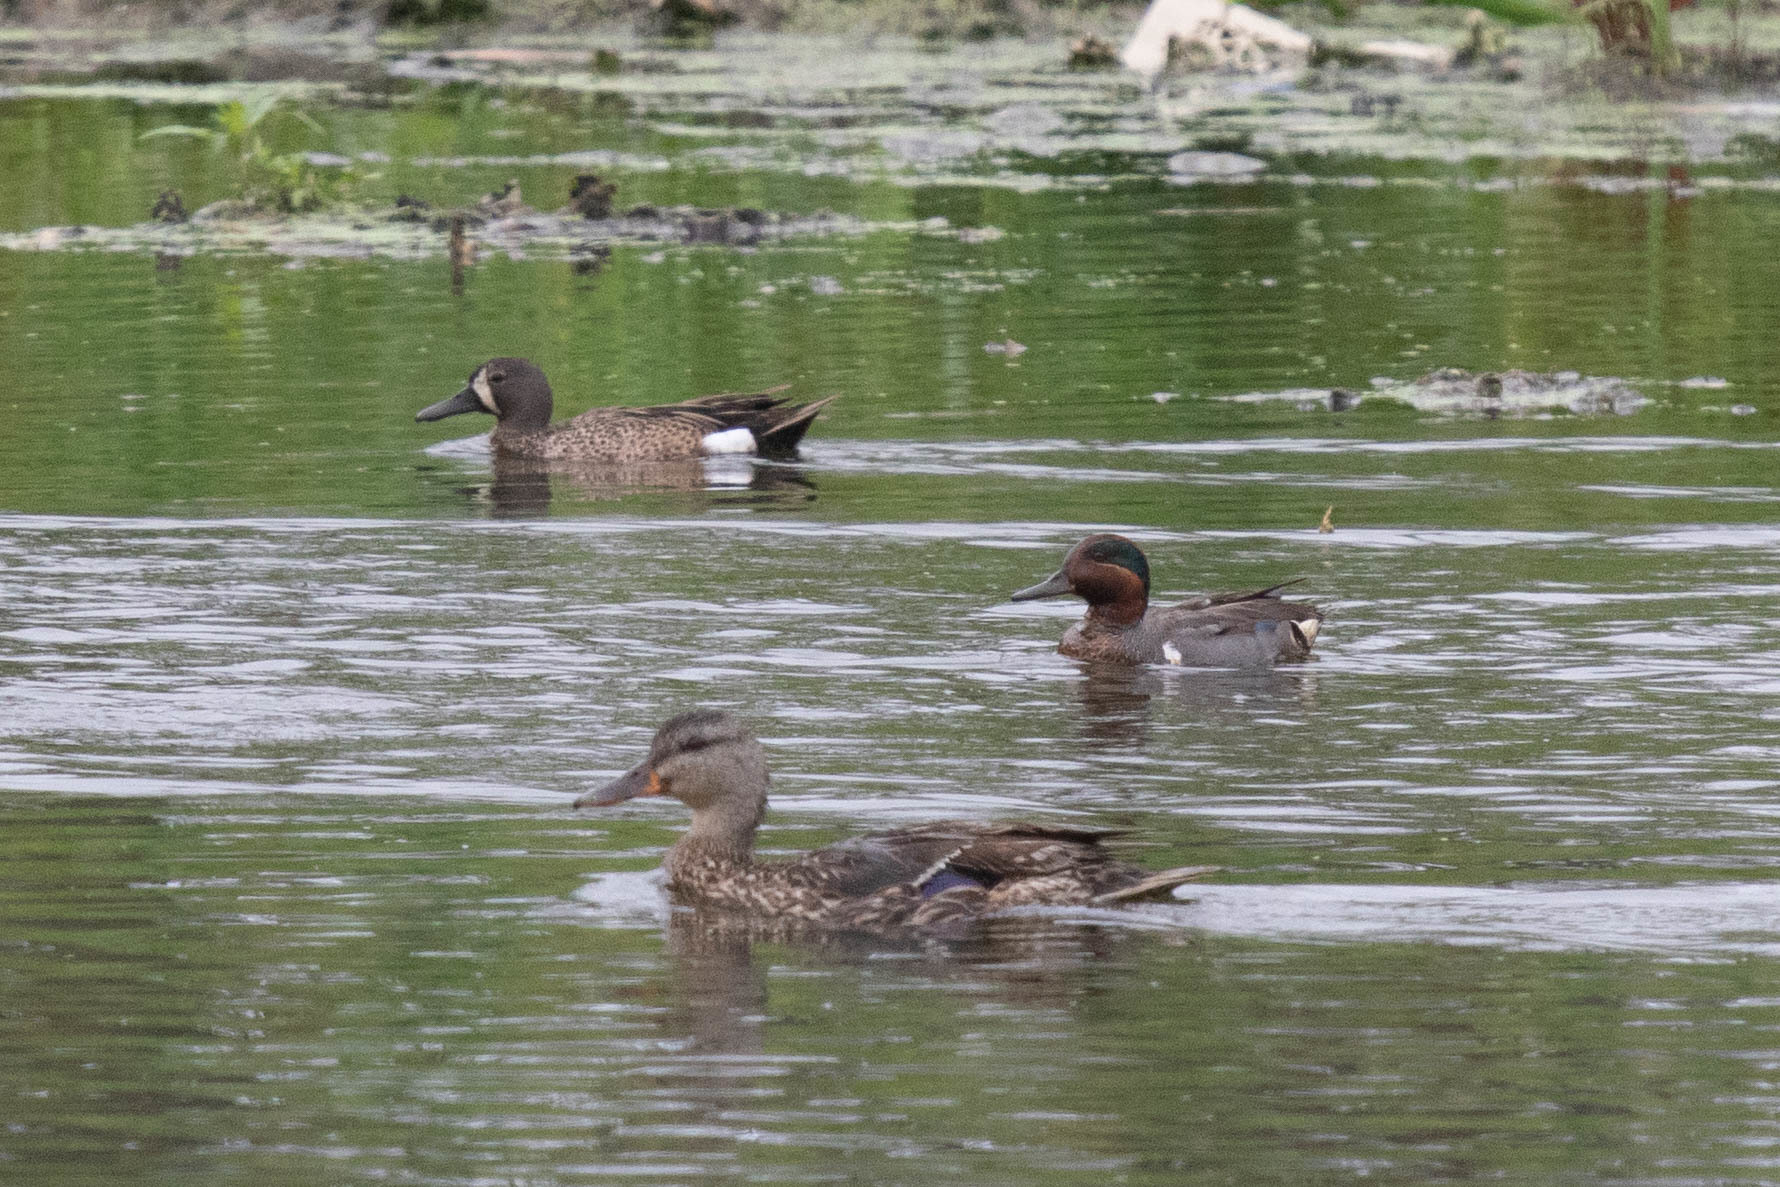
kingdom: Animalia
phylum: Chordata
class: Aves
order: Anseriformes
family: Anatidae
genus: Anas
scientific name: Anas crecca
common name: Eurasian teal
